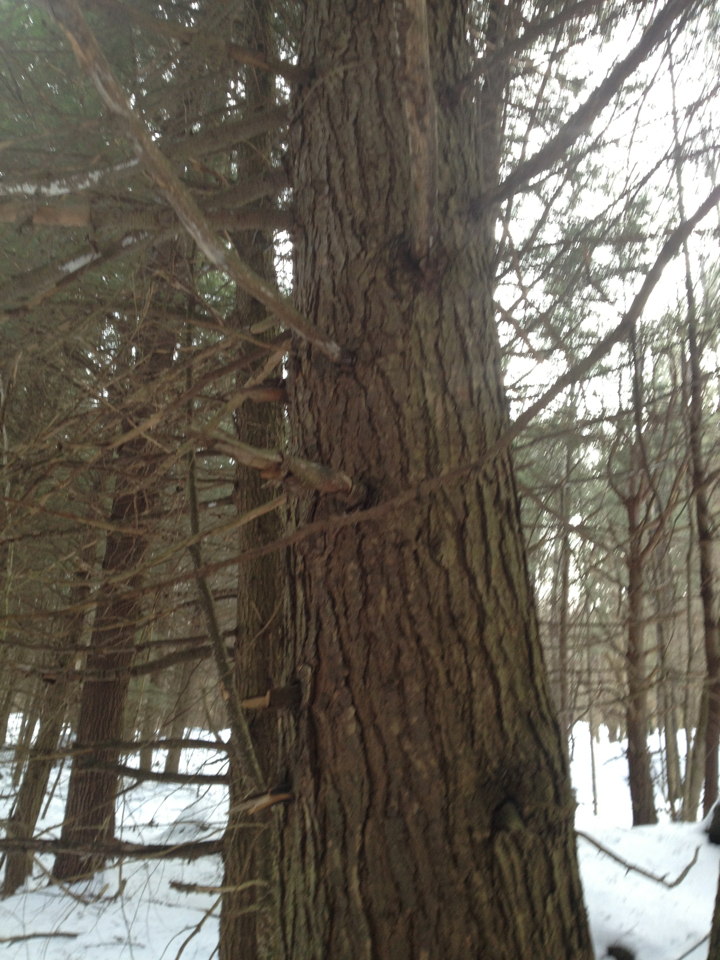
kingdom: Plantae
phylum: Tracheophyta
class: Pinopsida
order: Pinales
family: Pinaceae
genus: Tsuga
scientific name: Tsuga canadensis
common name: Eastern hemlock
